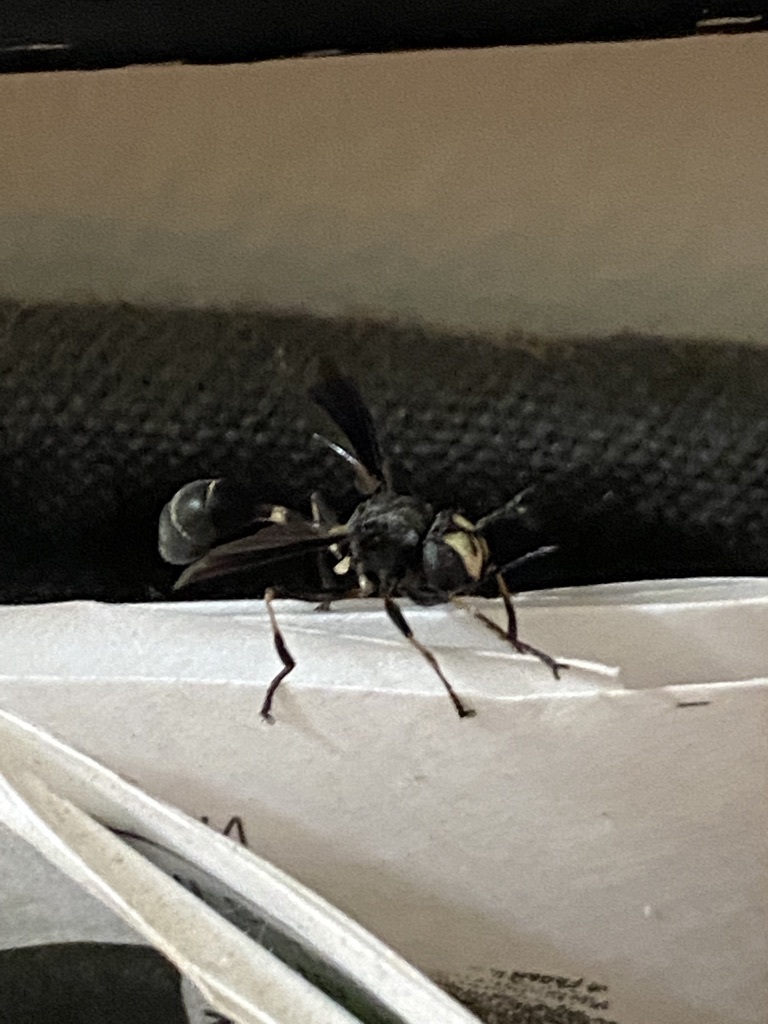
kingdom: Animalia
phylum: Arthropoda
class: Insecta
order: Diptera
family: Conopidae
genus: Physocephala
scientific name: Physocephala tibialis
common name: Common eastern physocephala
